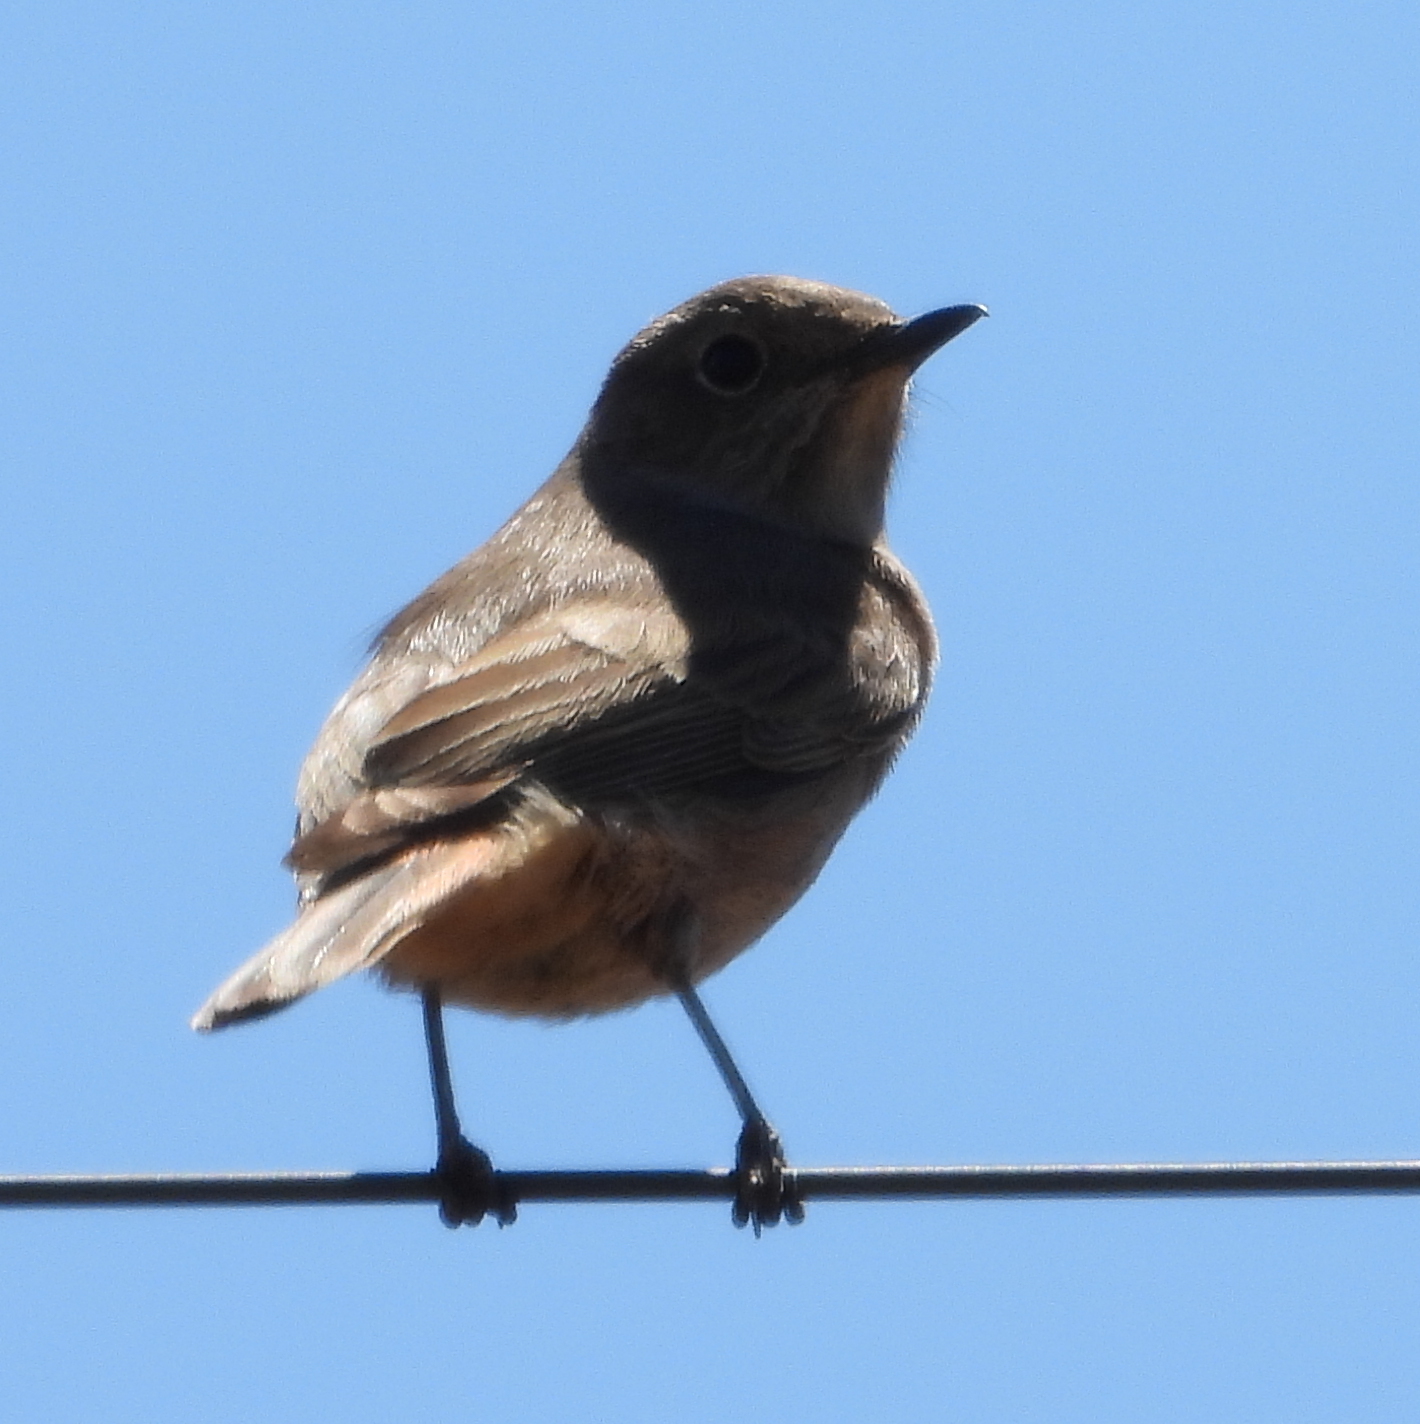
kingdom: Animalia
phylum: Chordata
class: Aves
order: Passeriformes
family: Muscicapidae
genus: Oenanthe
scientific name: Oenanthe familiaris
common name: Familiar chat
